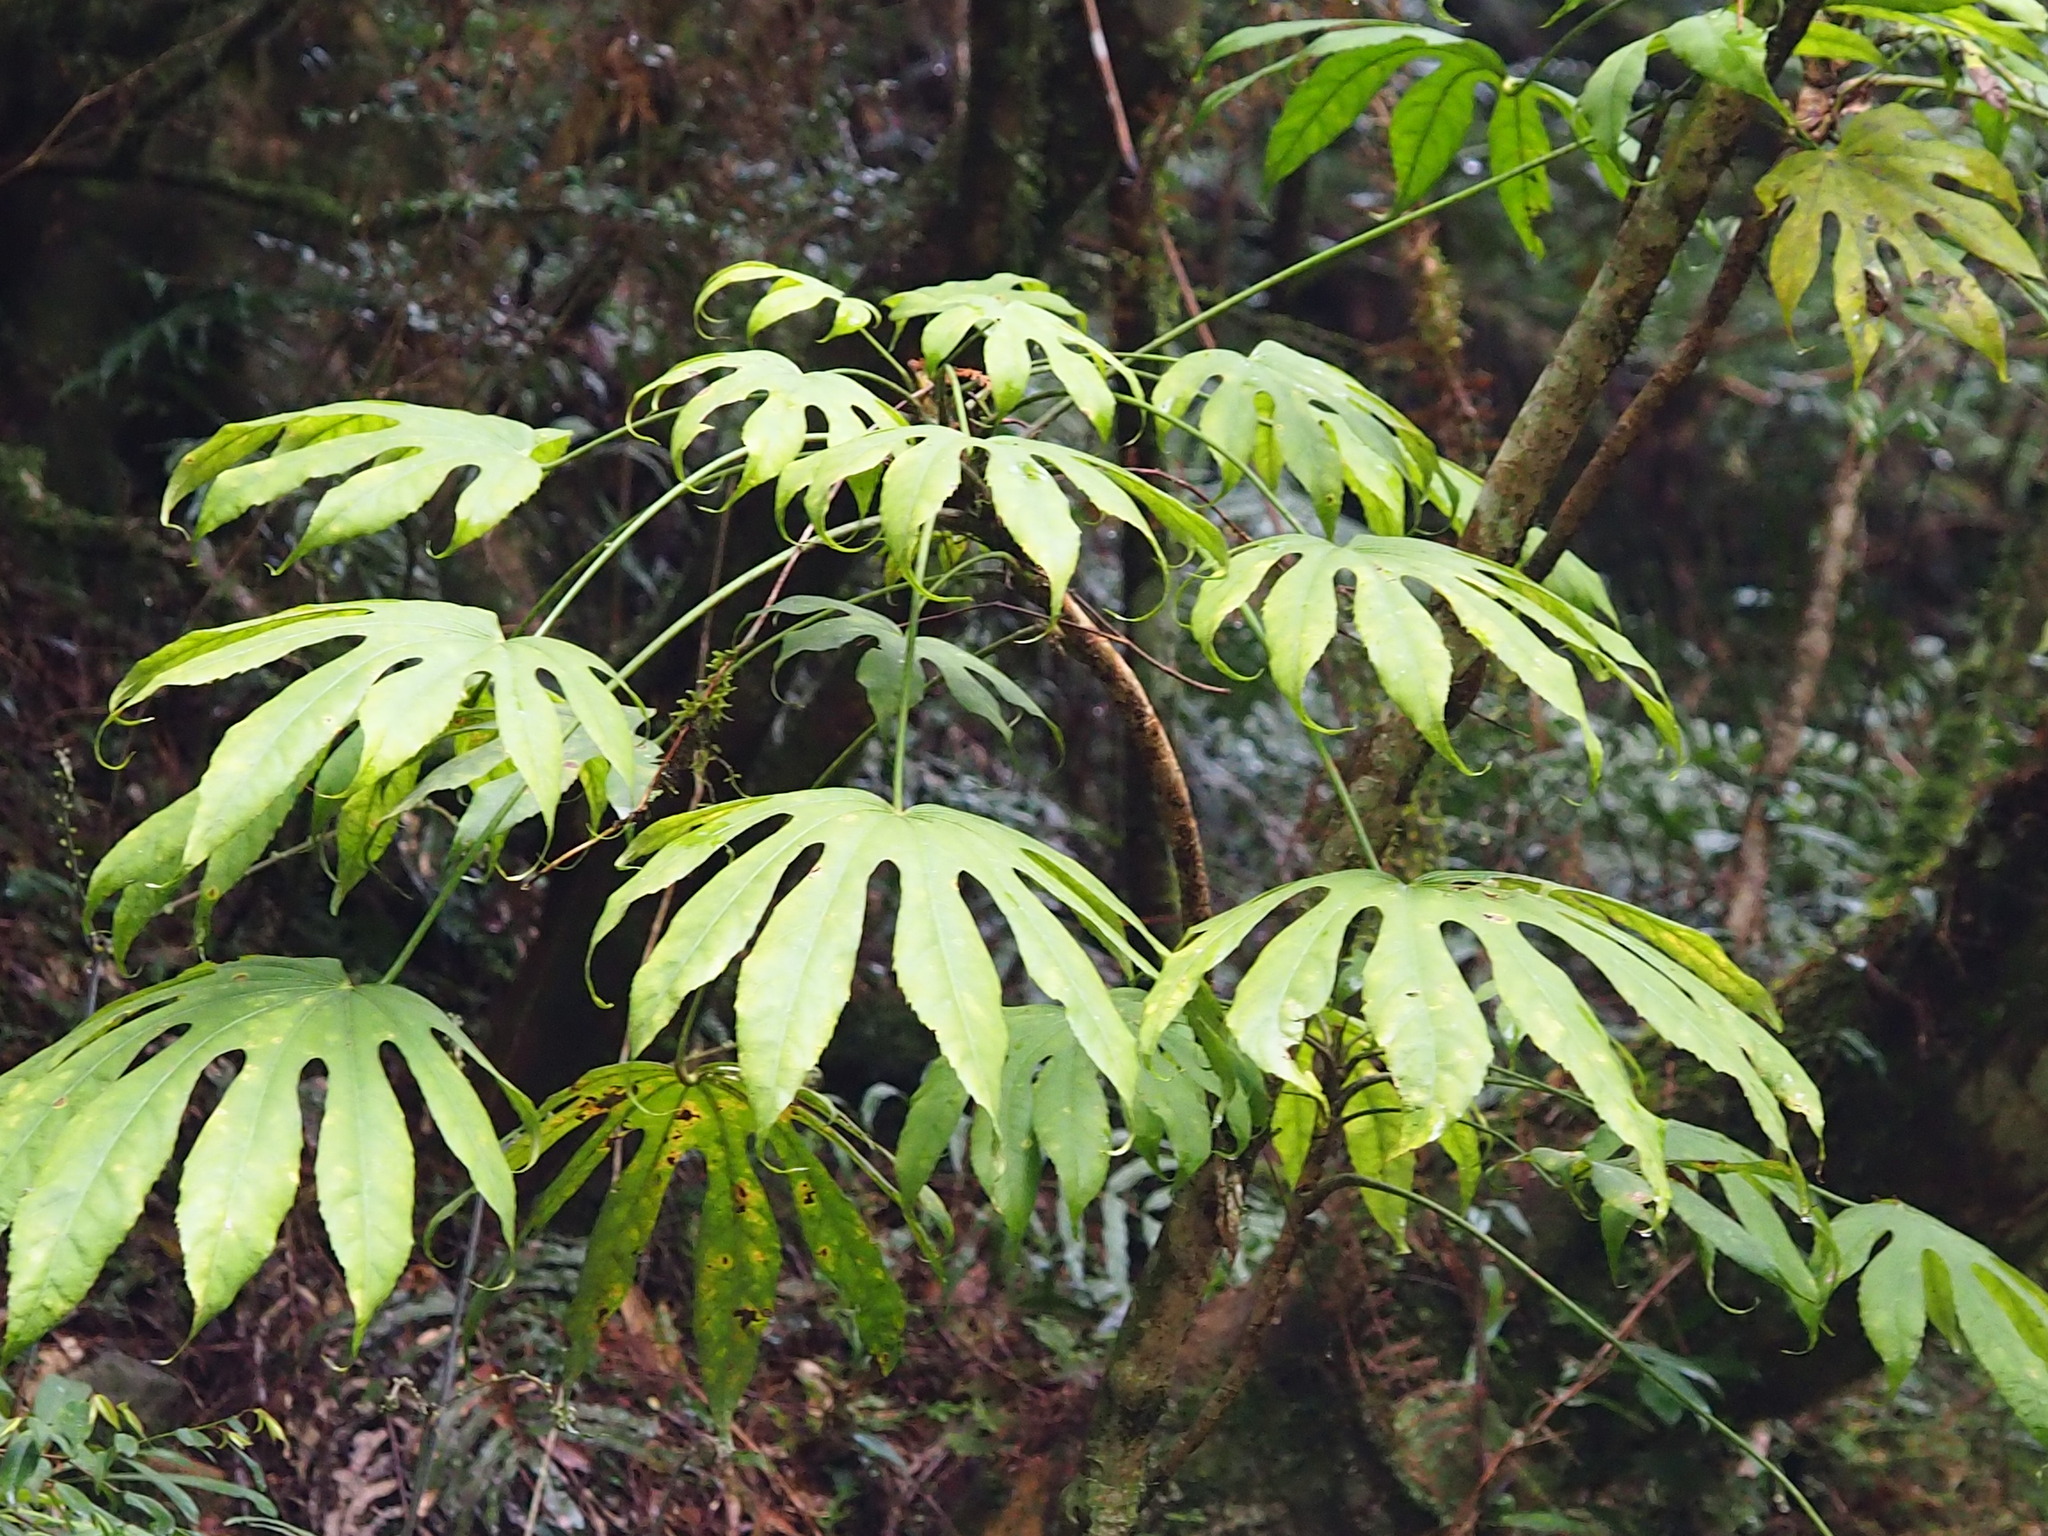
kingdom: Plantae
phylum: Tracheophyta
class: Magnoliopsida
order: Apiales
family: Araliaceae
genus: Fatsia
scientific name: Fatsia polycarpa
